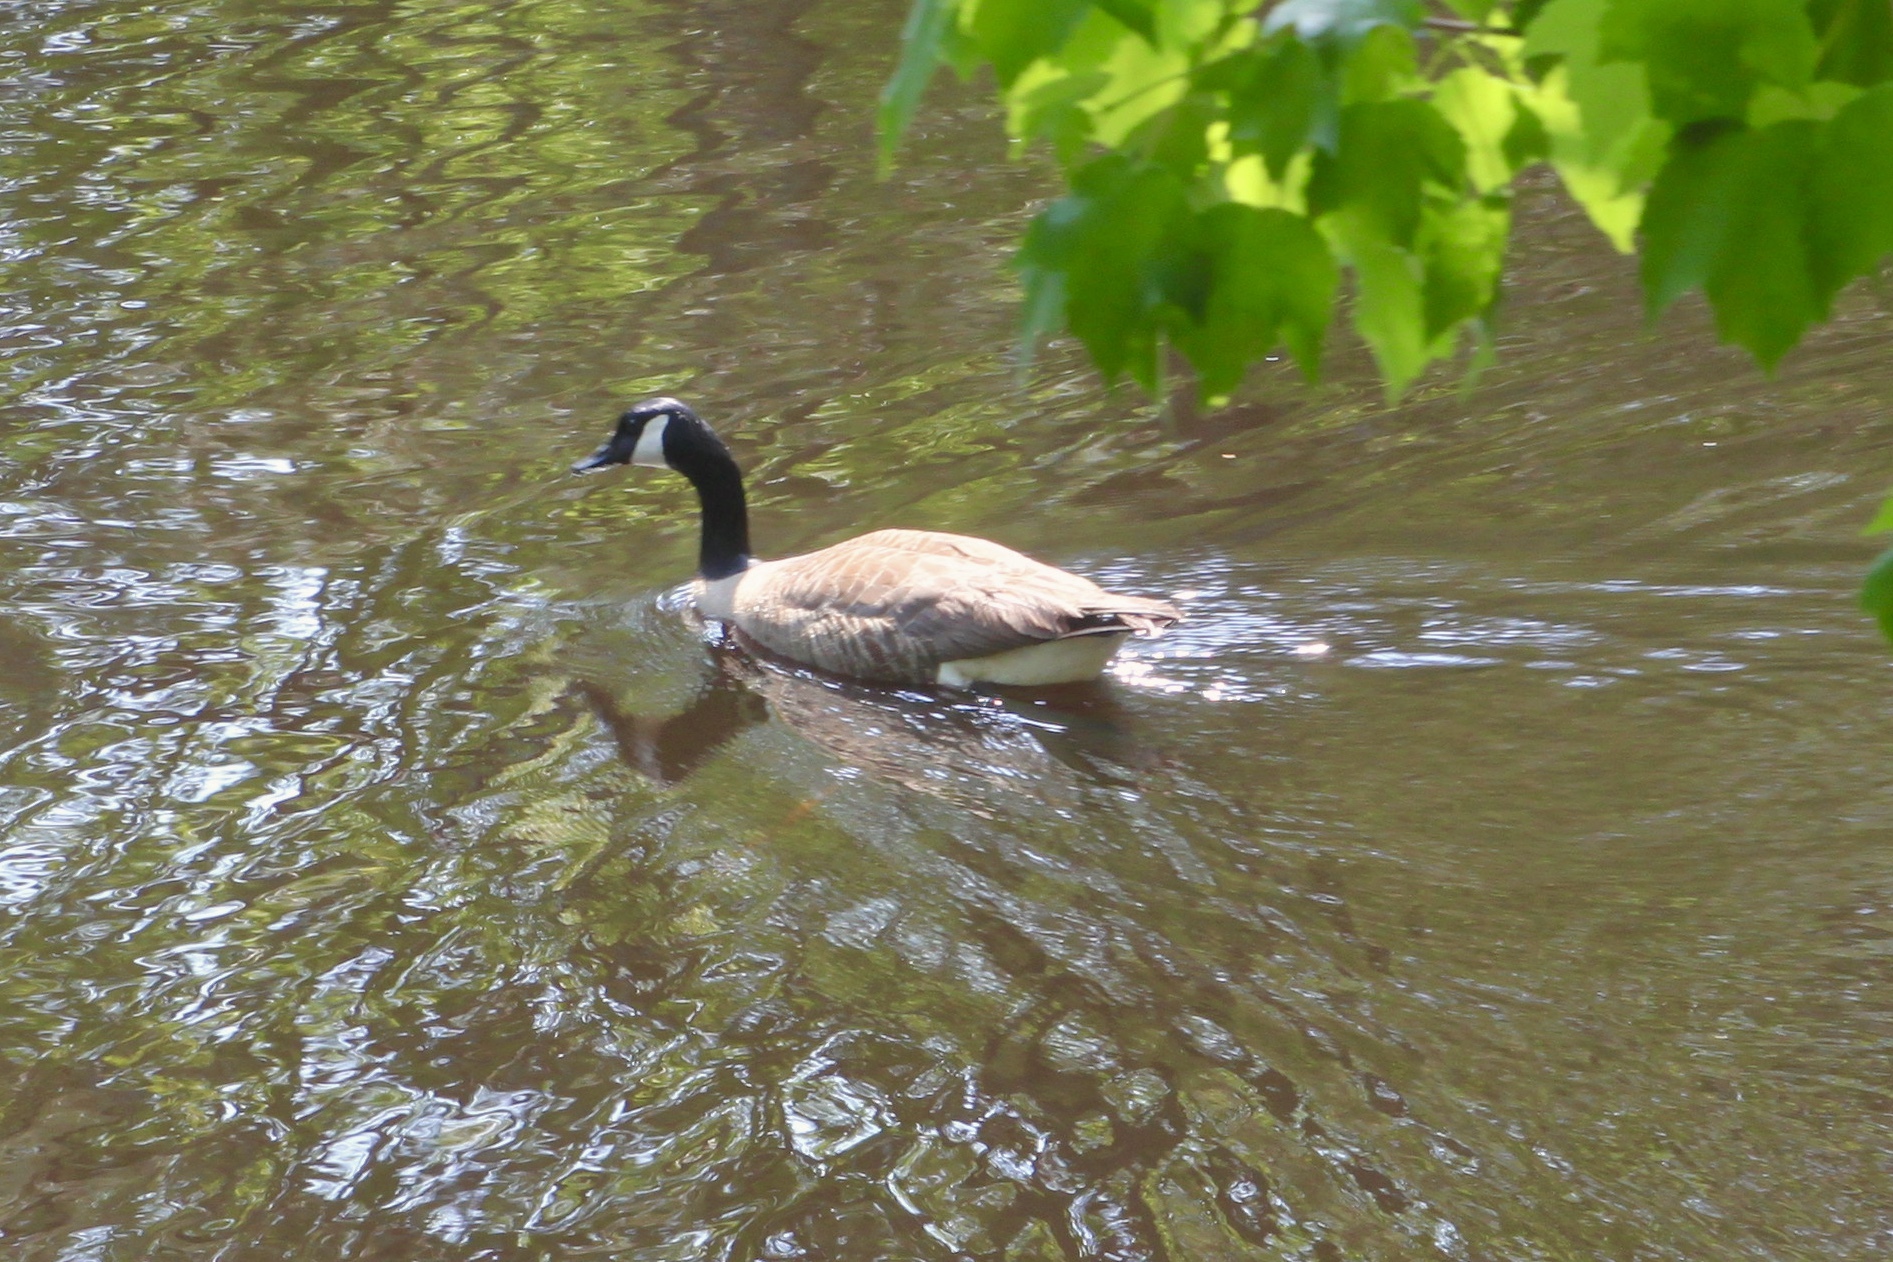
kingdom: Animalia
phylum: Chordata
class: Aves
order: Anseriformes
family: Anatidae
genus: Branta
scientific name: Branta canadensis
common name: Canada goose
